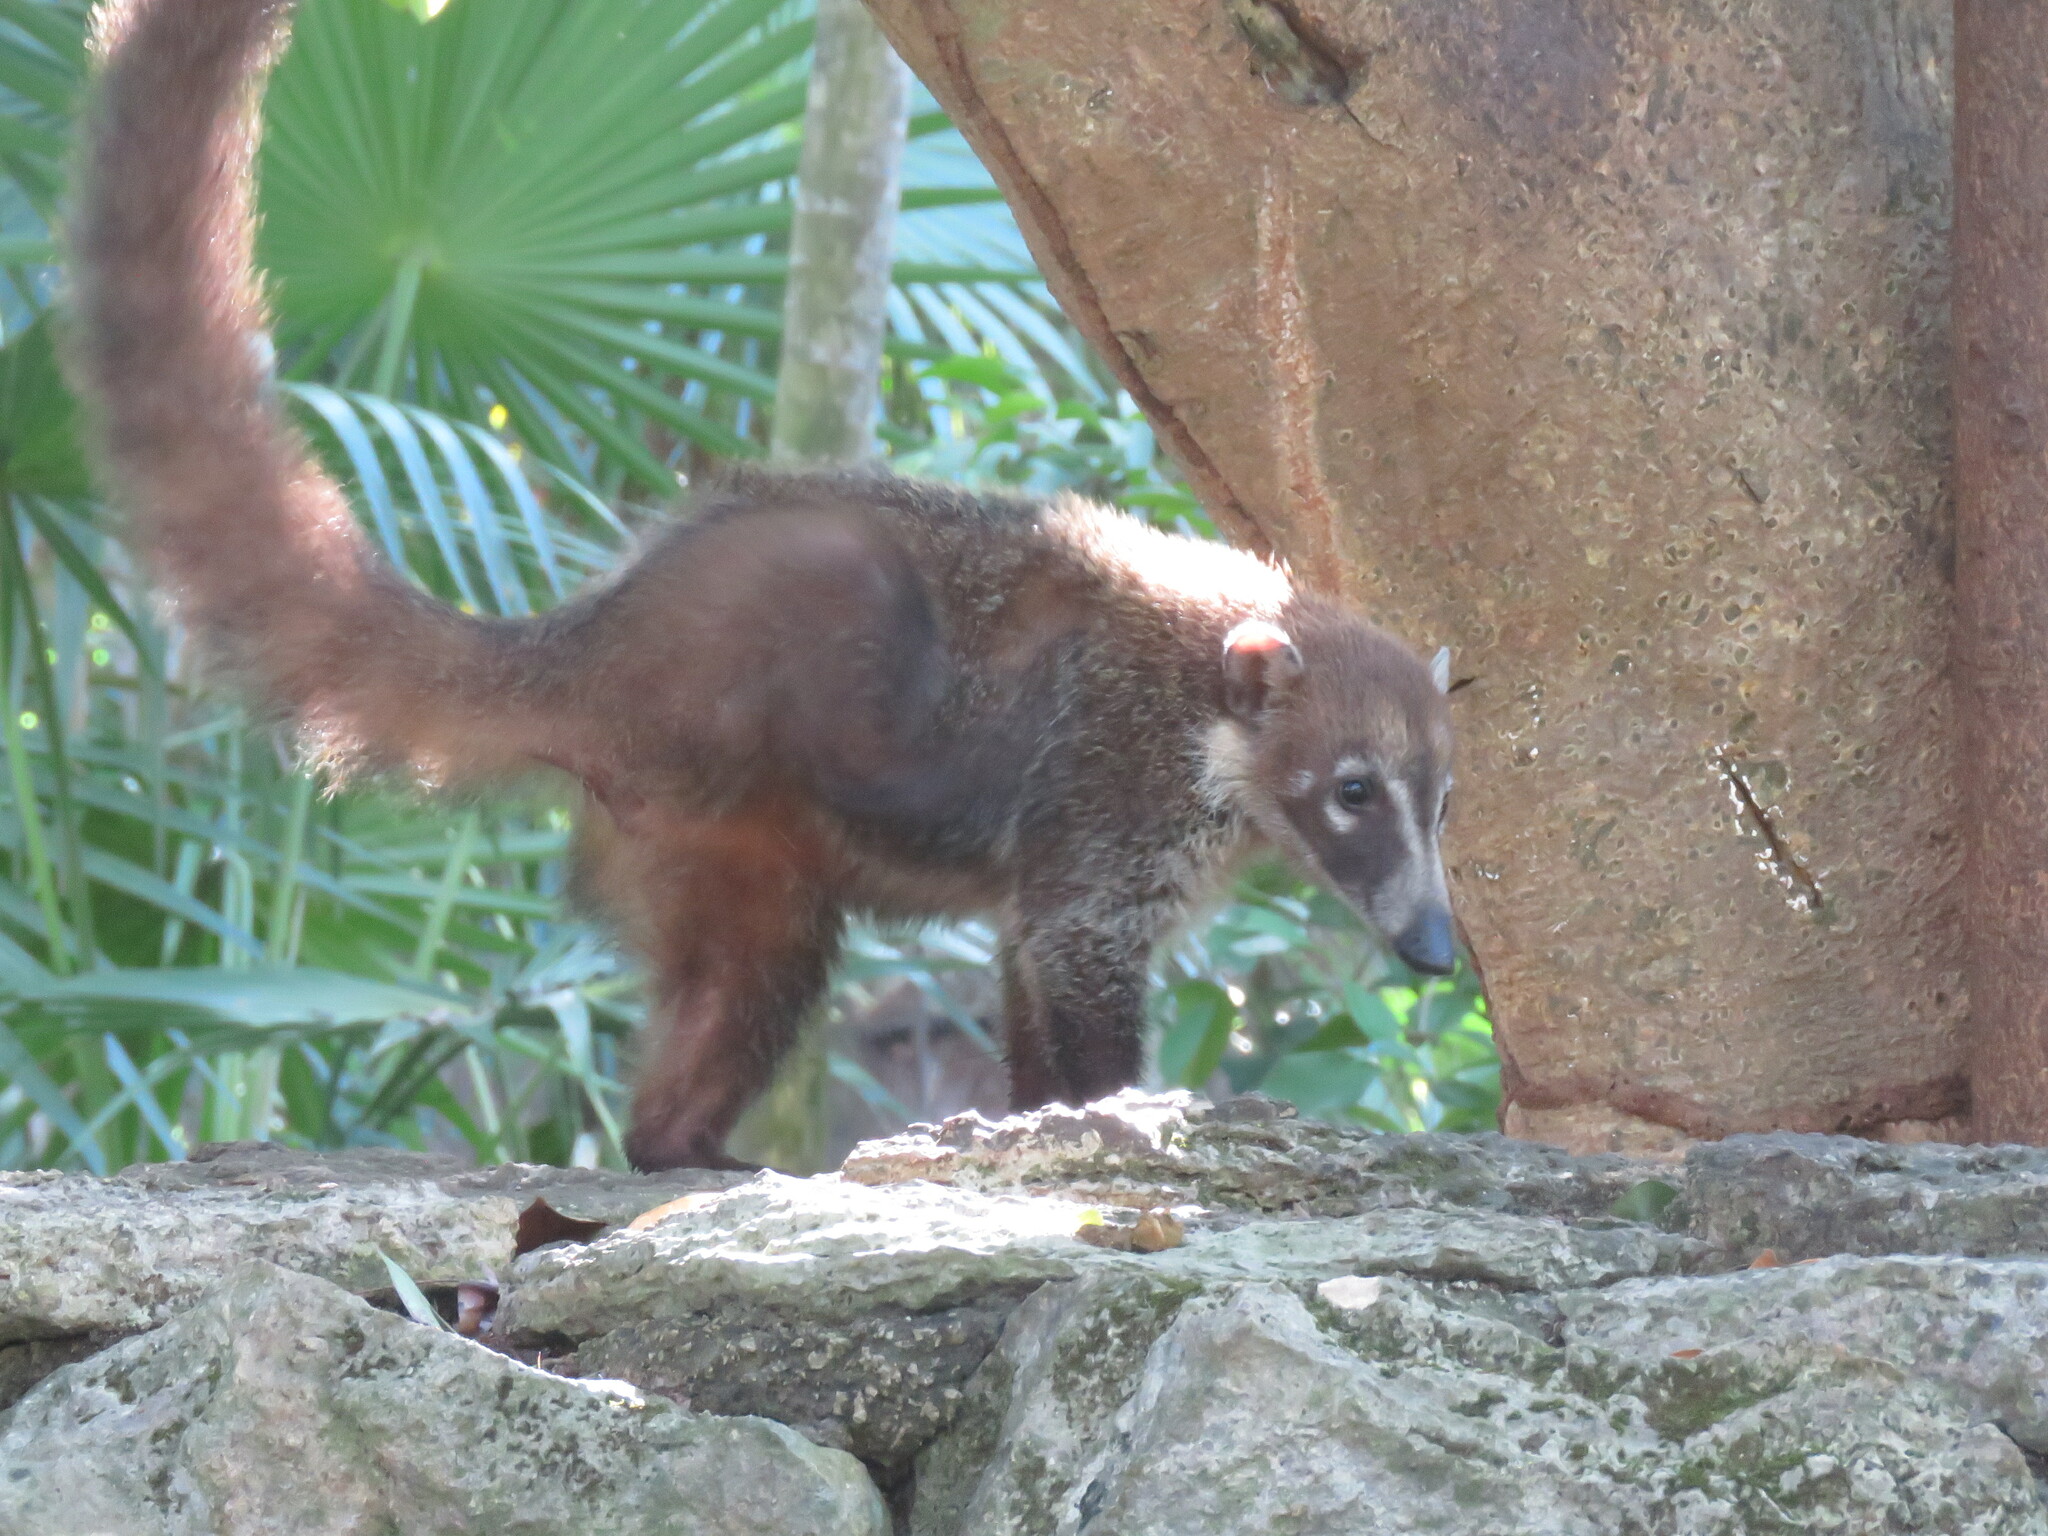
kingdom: Animalia
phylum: Chordata
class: Mammalia
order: Carnivora
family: Procyonidae
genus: Nasua
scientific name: Nasua narica
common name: White-nosed coati
